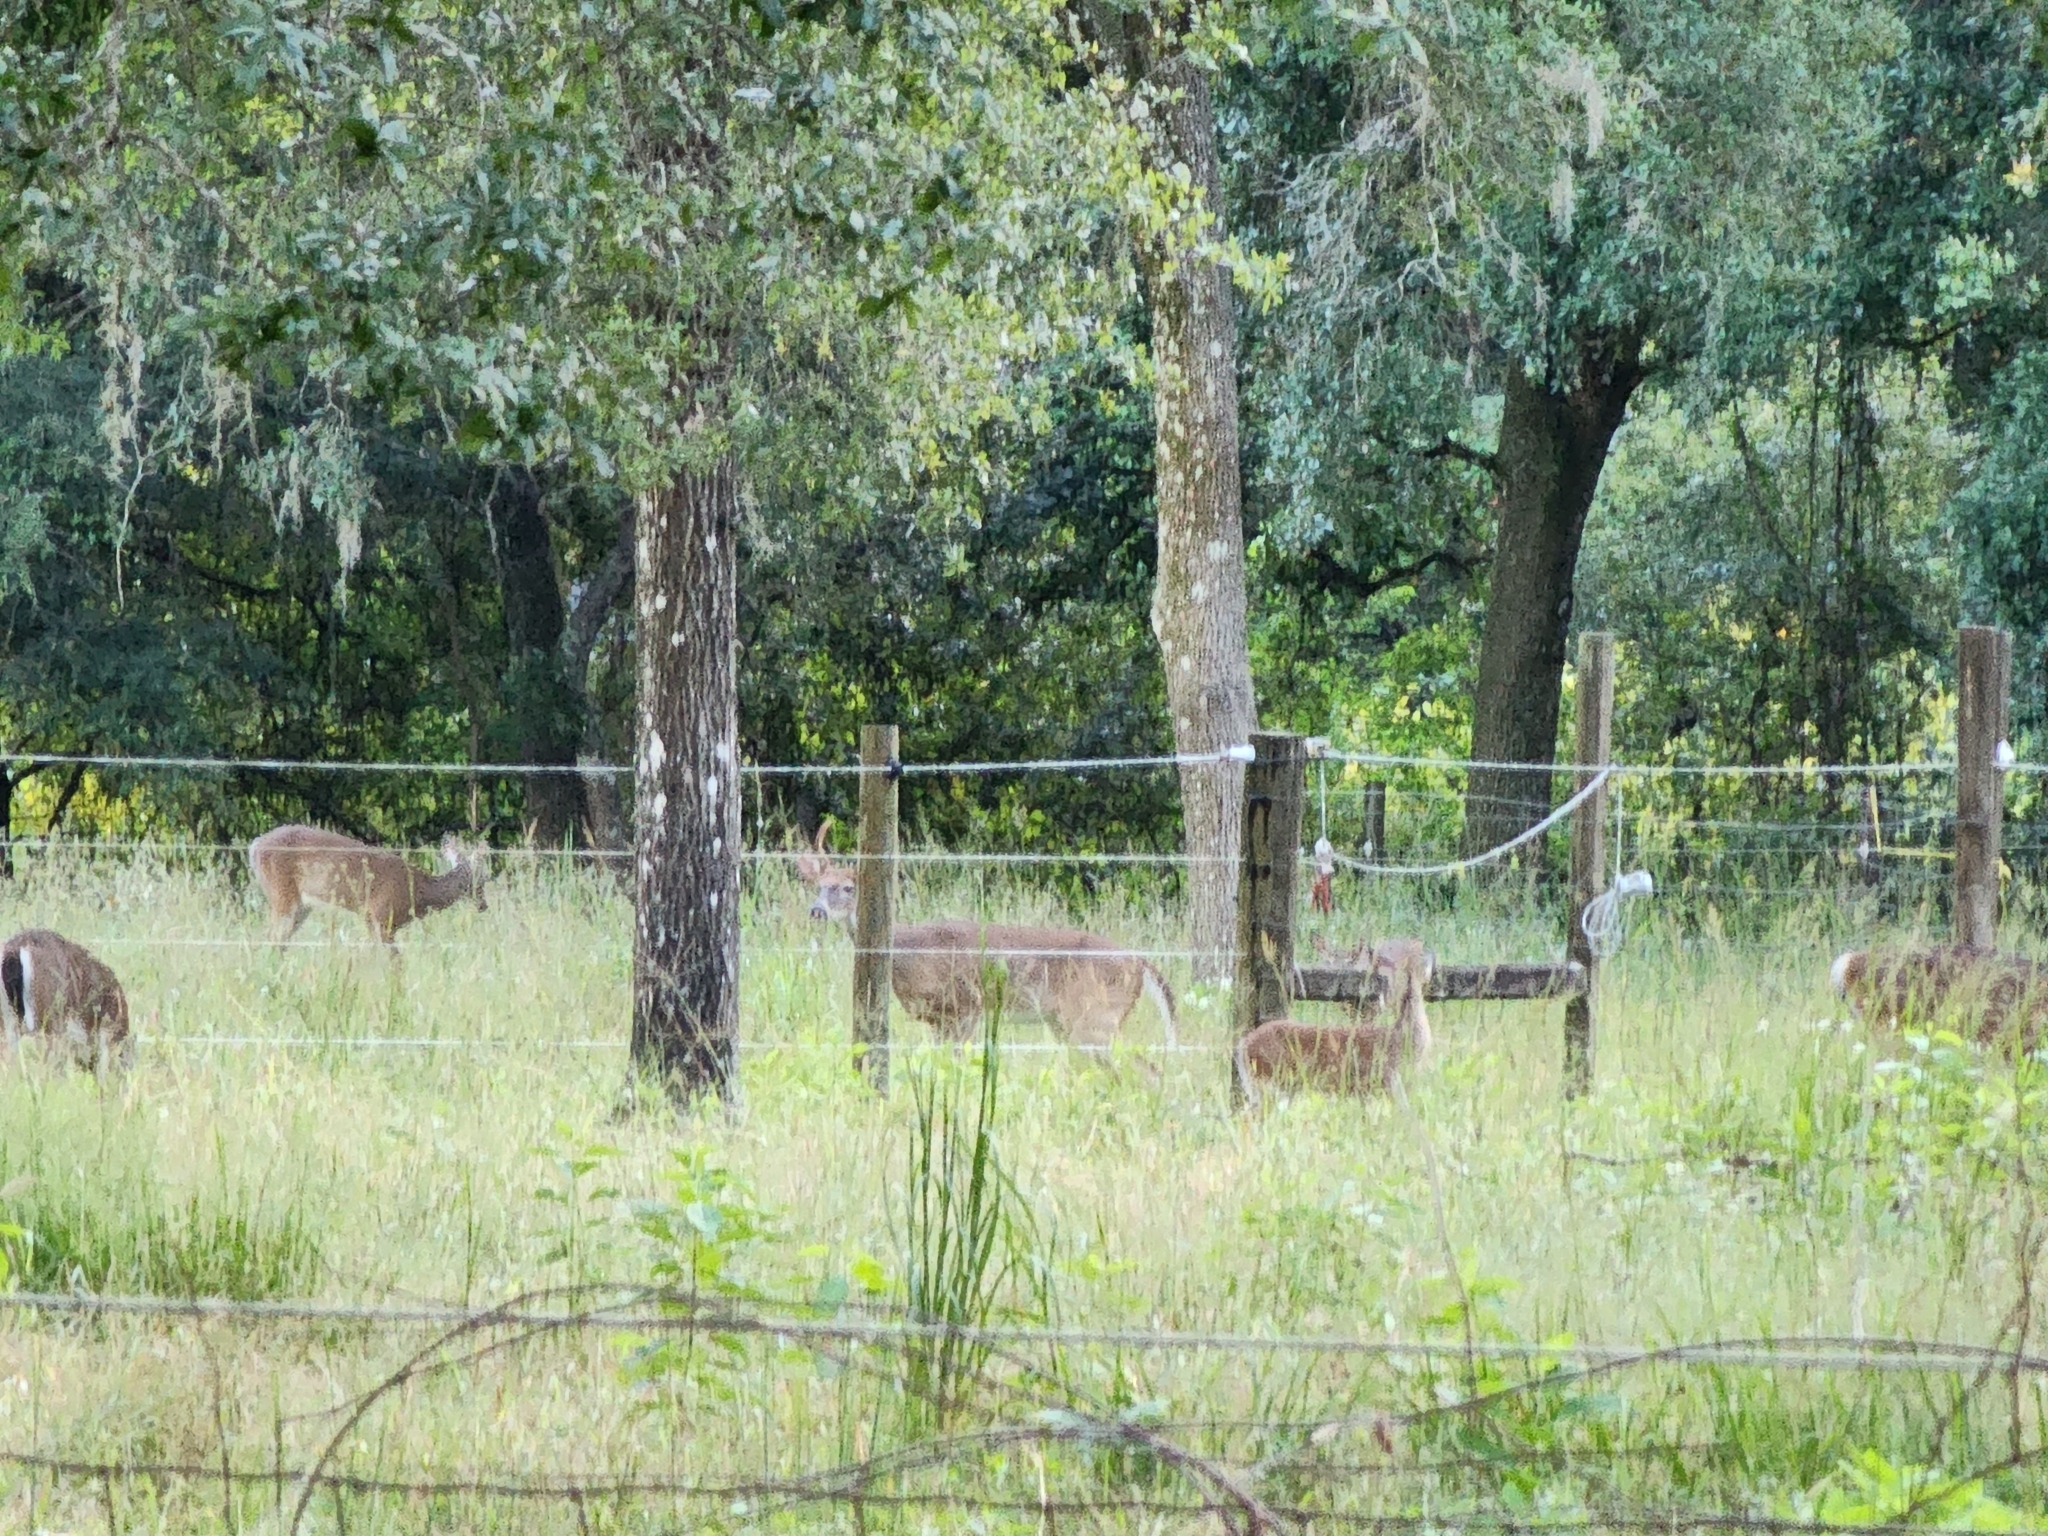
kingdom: Animalia
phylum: Chordata
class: Mammalia
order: Artiodactyla
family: Cervidae
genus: Odocoileus
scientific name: Odocoileus virginianus
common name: White-tailed deer
